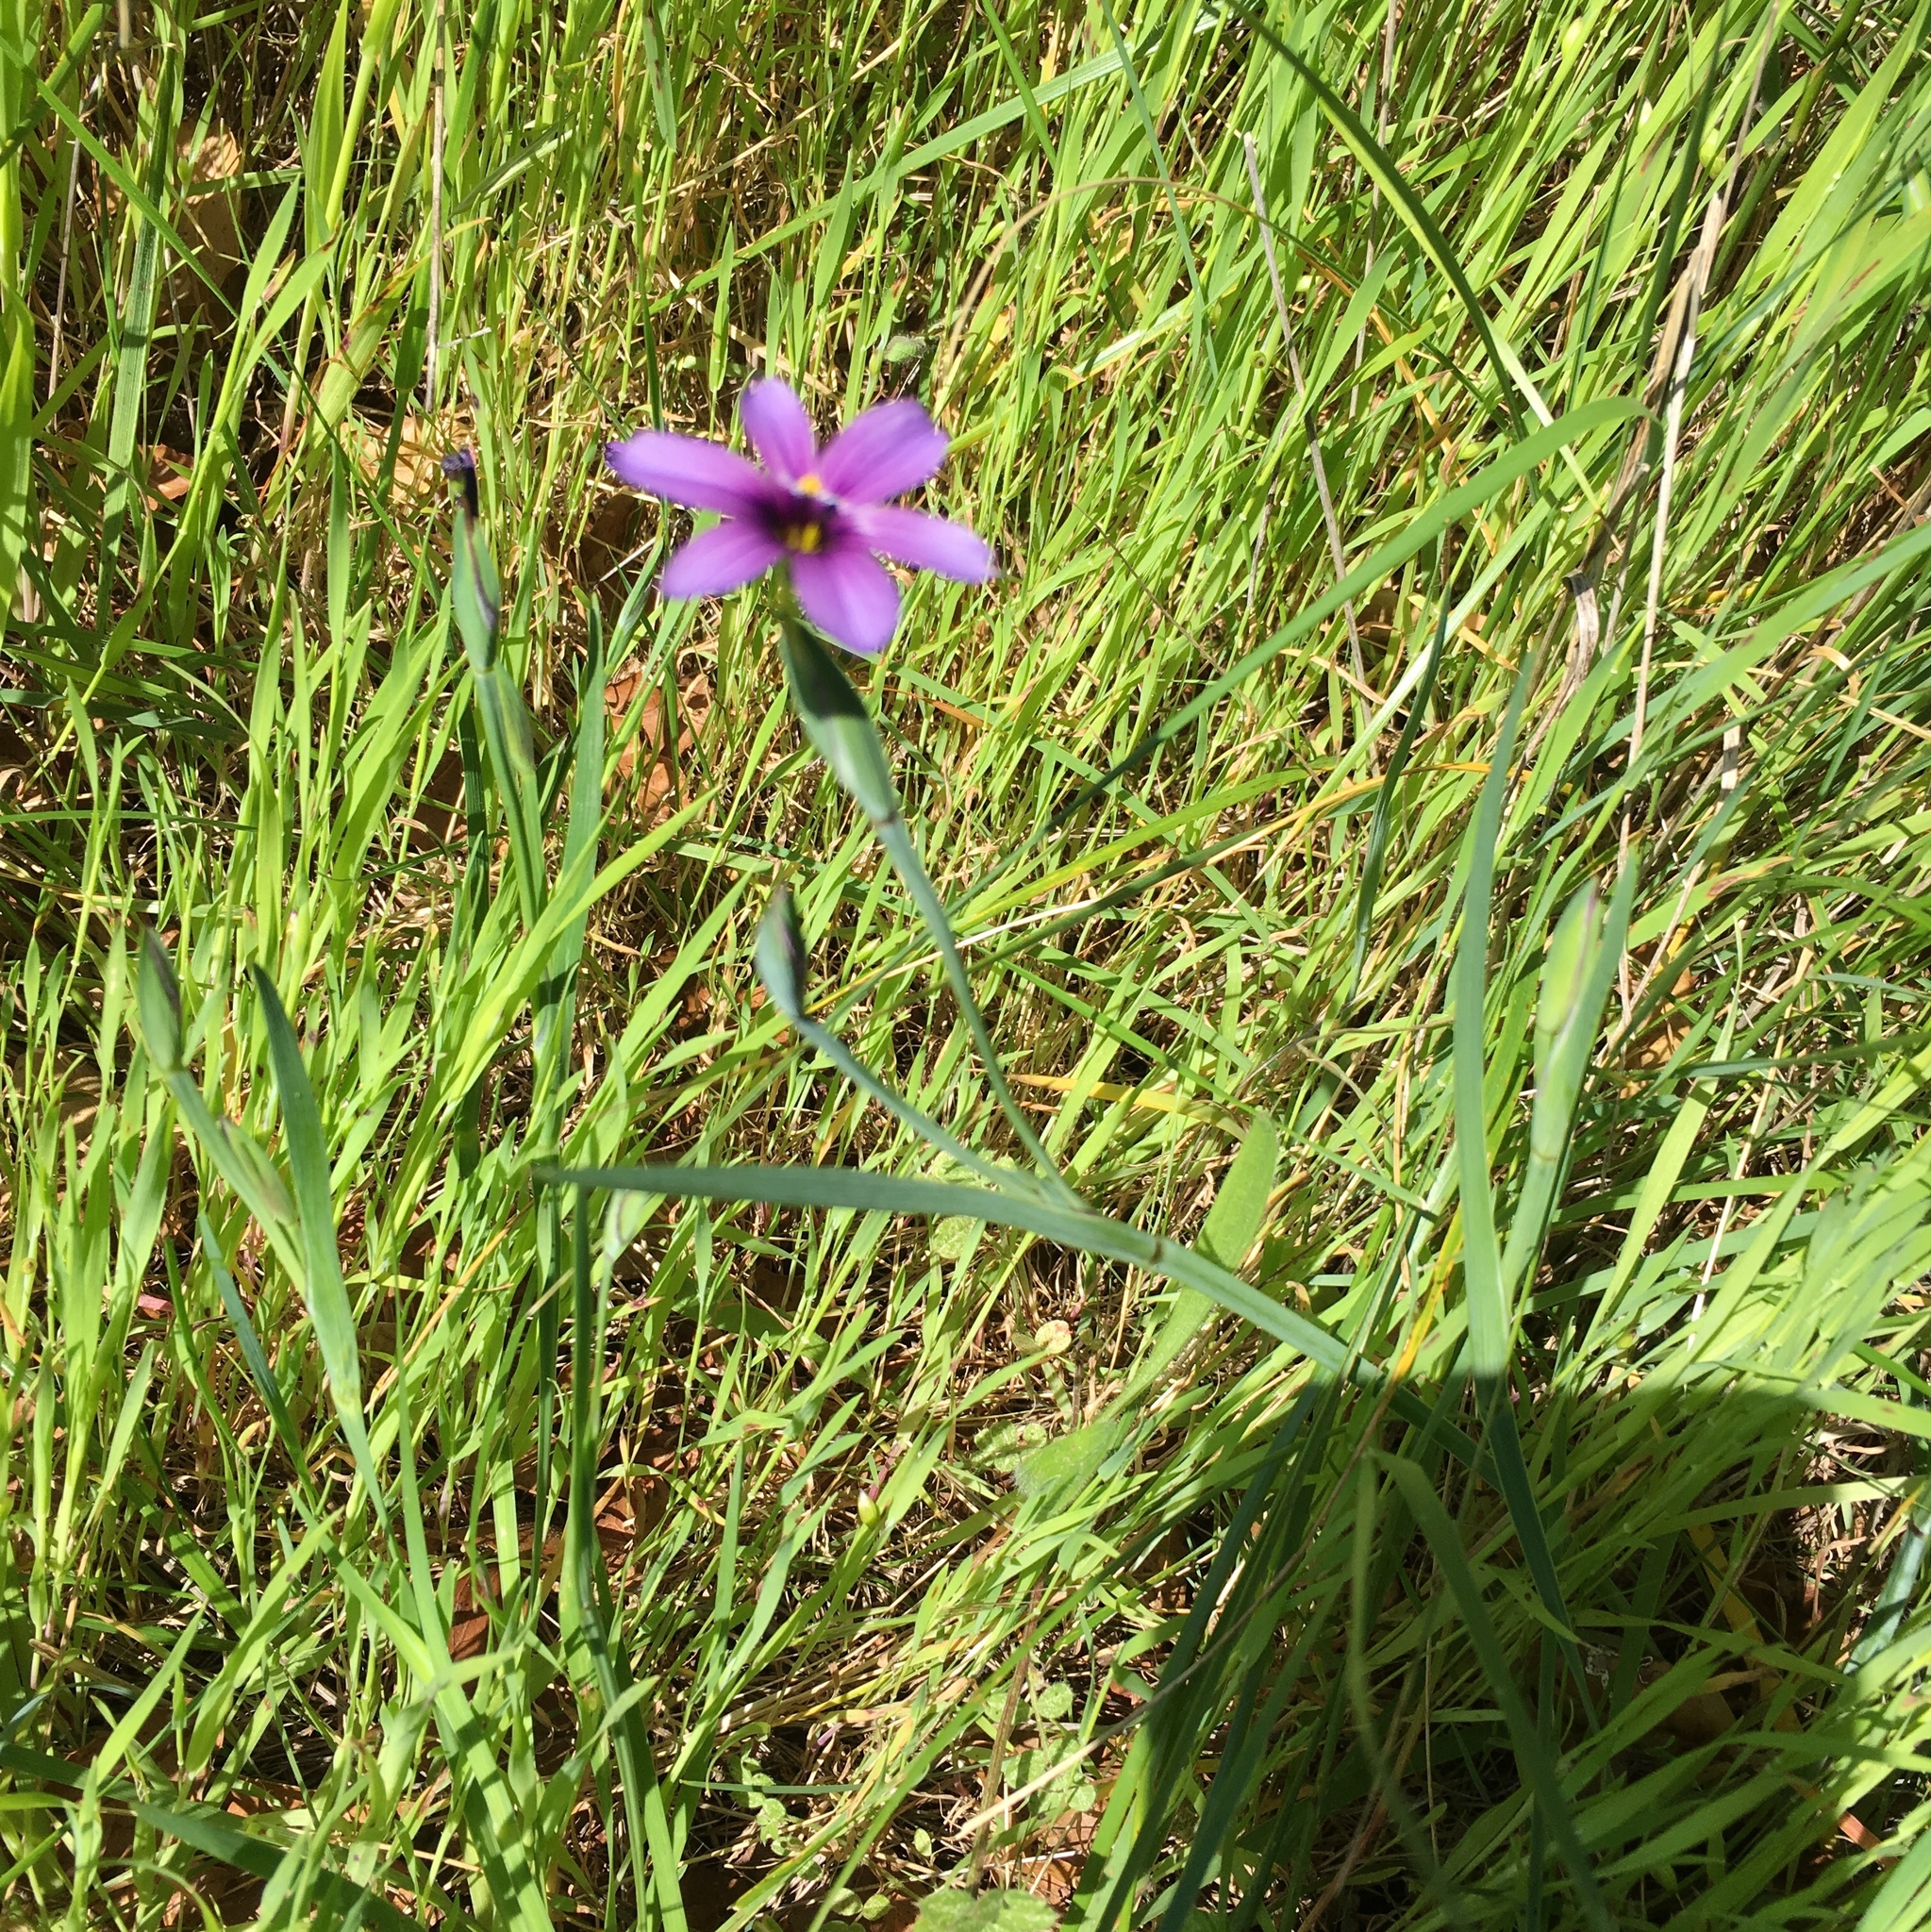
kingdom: Plantae
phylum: Tracheophyta
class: Liliopsida
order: Asparagales
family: Iridaceae
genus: Sisyrinchium
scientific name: Sisyrinchium bellum
